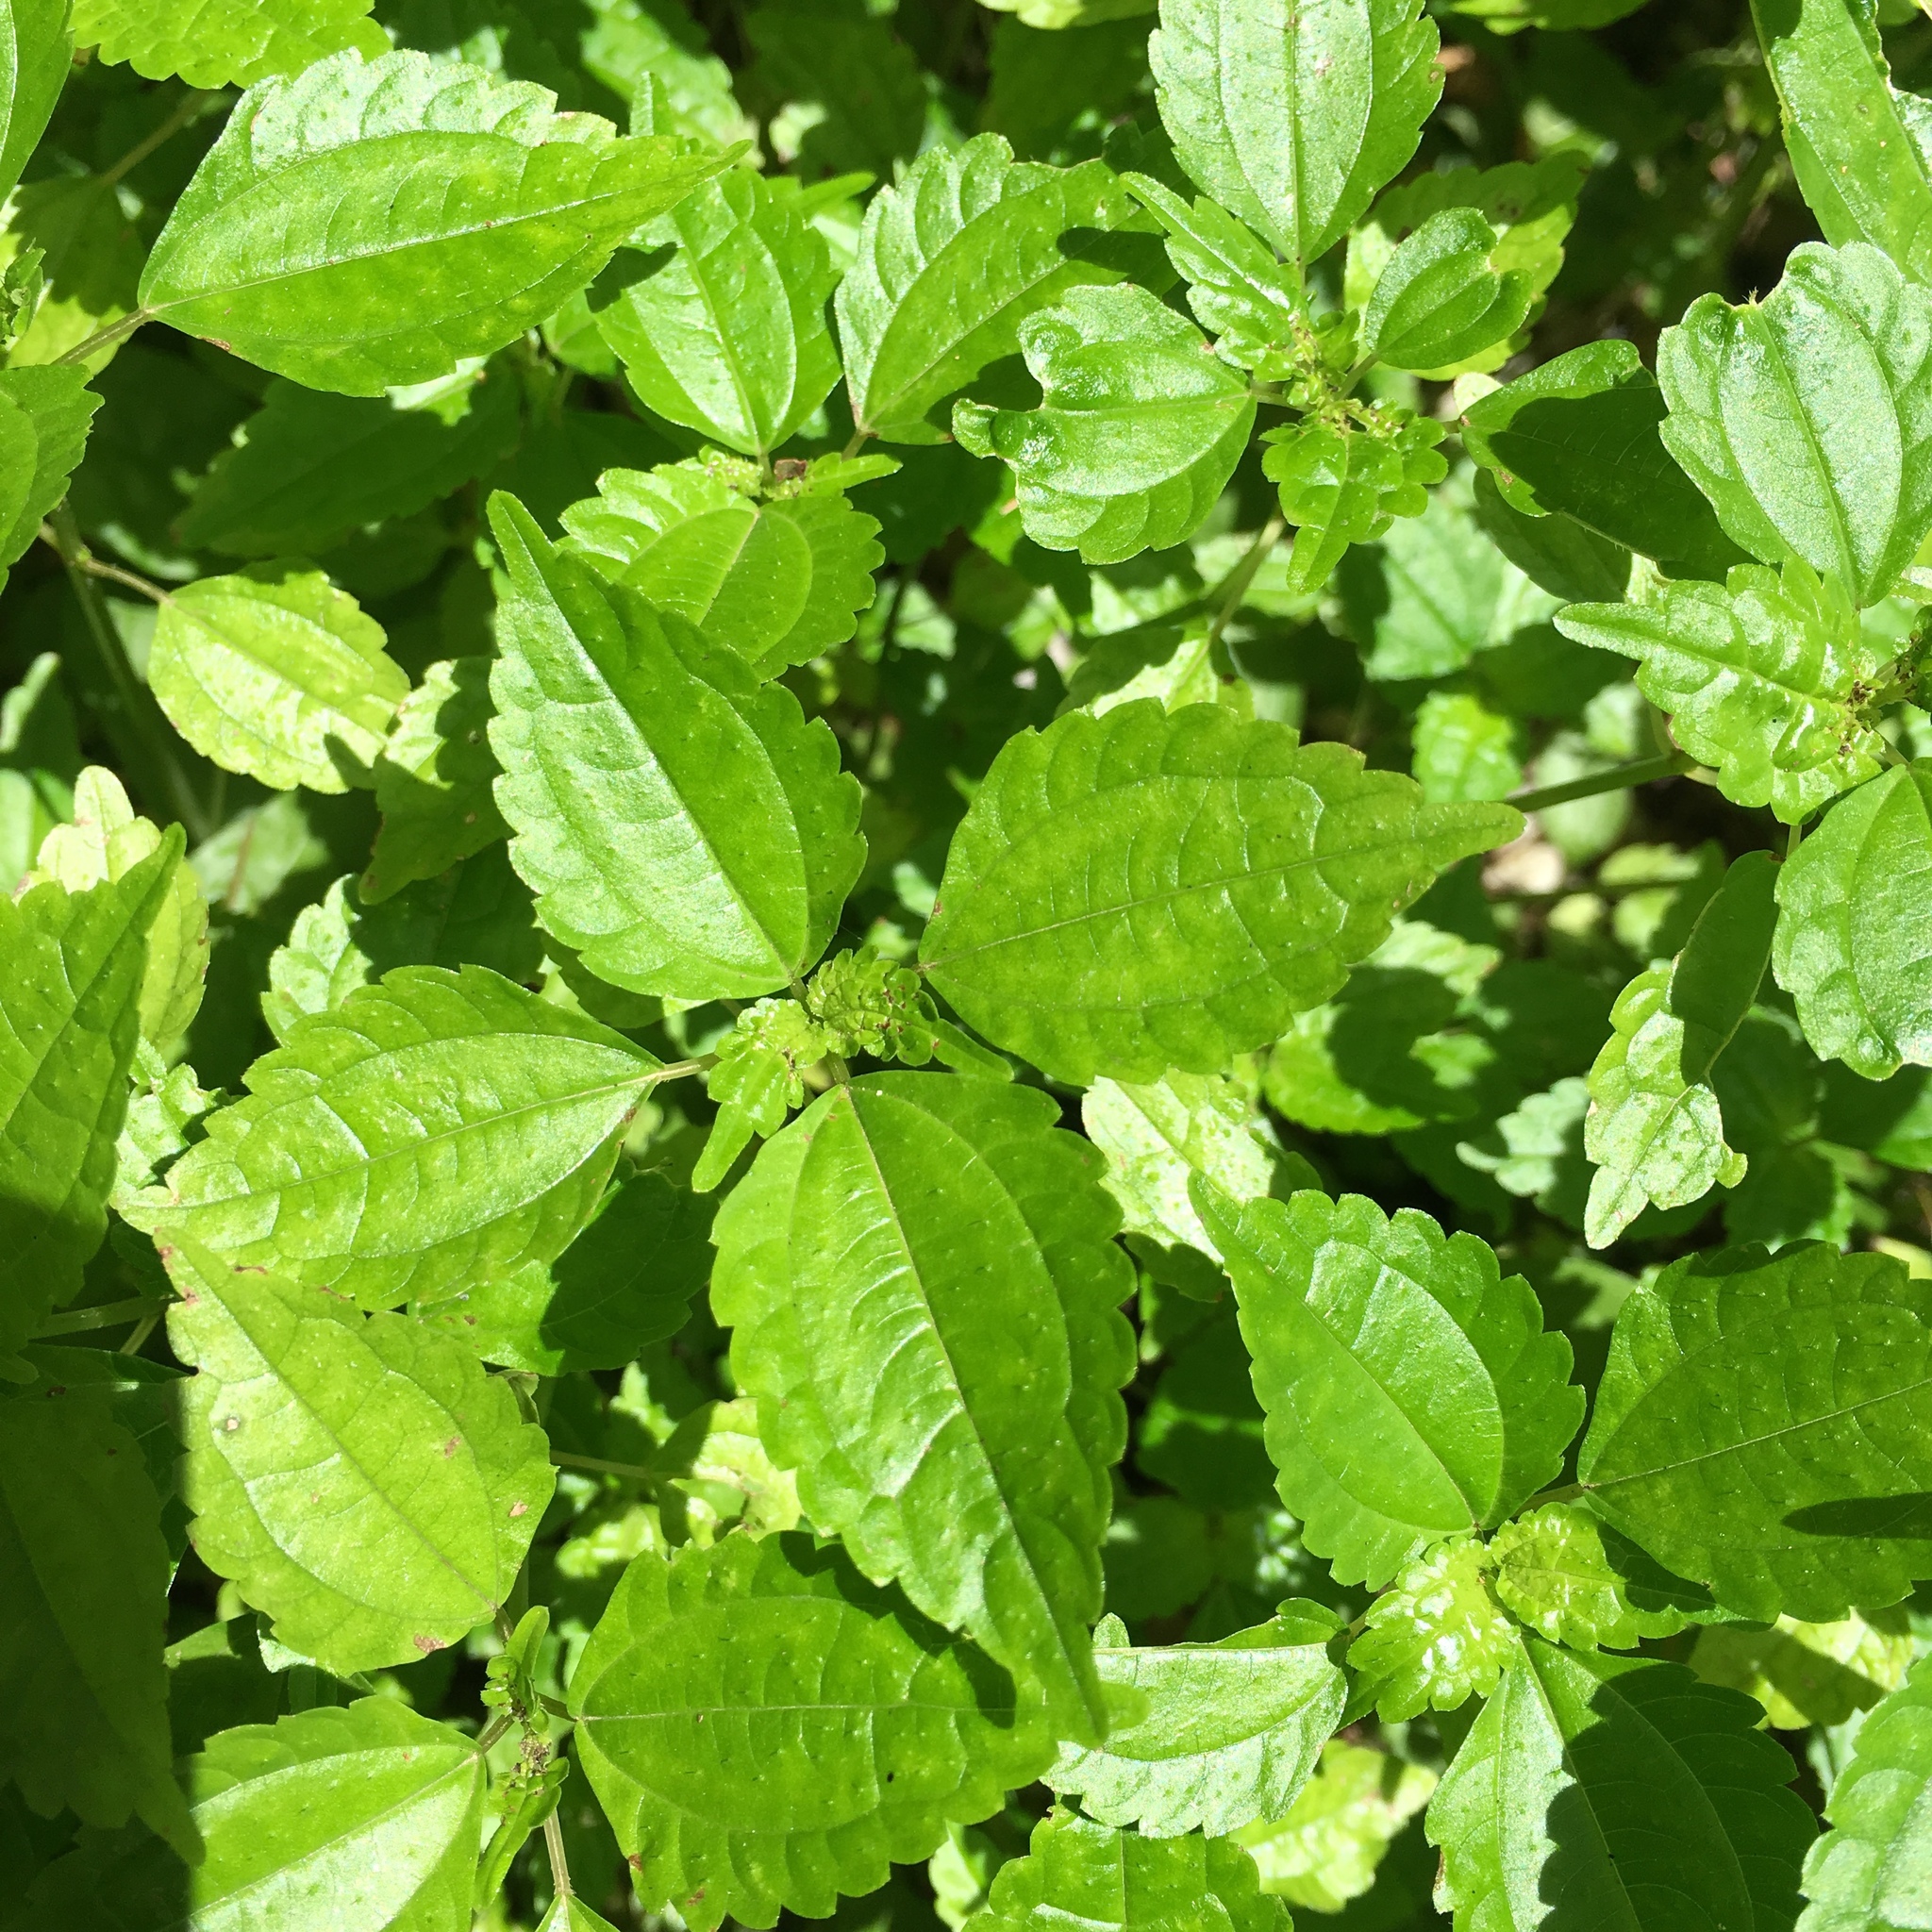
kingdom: Plantae
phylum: Tracheophyta
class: Magnoliopsida
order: Rosales
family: Urticaceae
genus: Pilea
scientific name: Pilea pumila
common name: Clearweed
